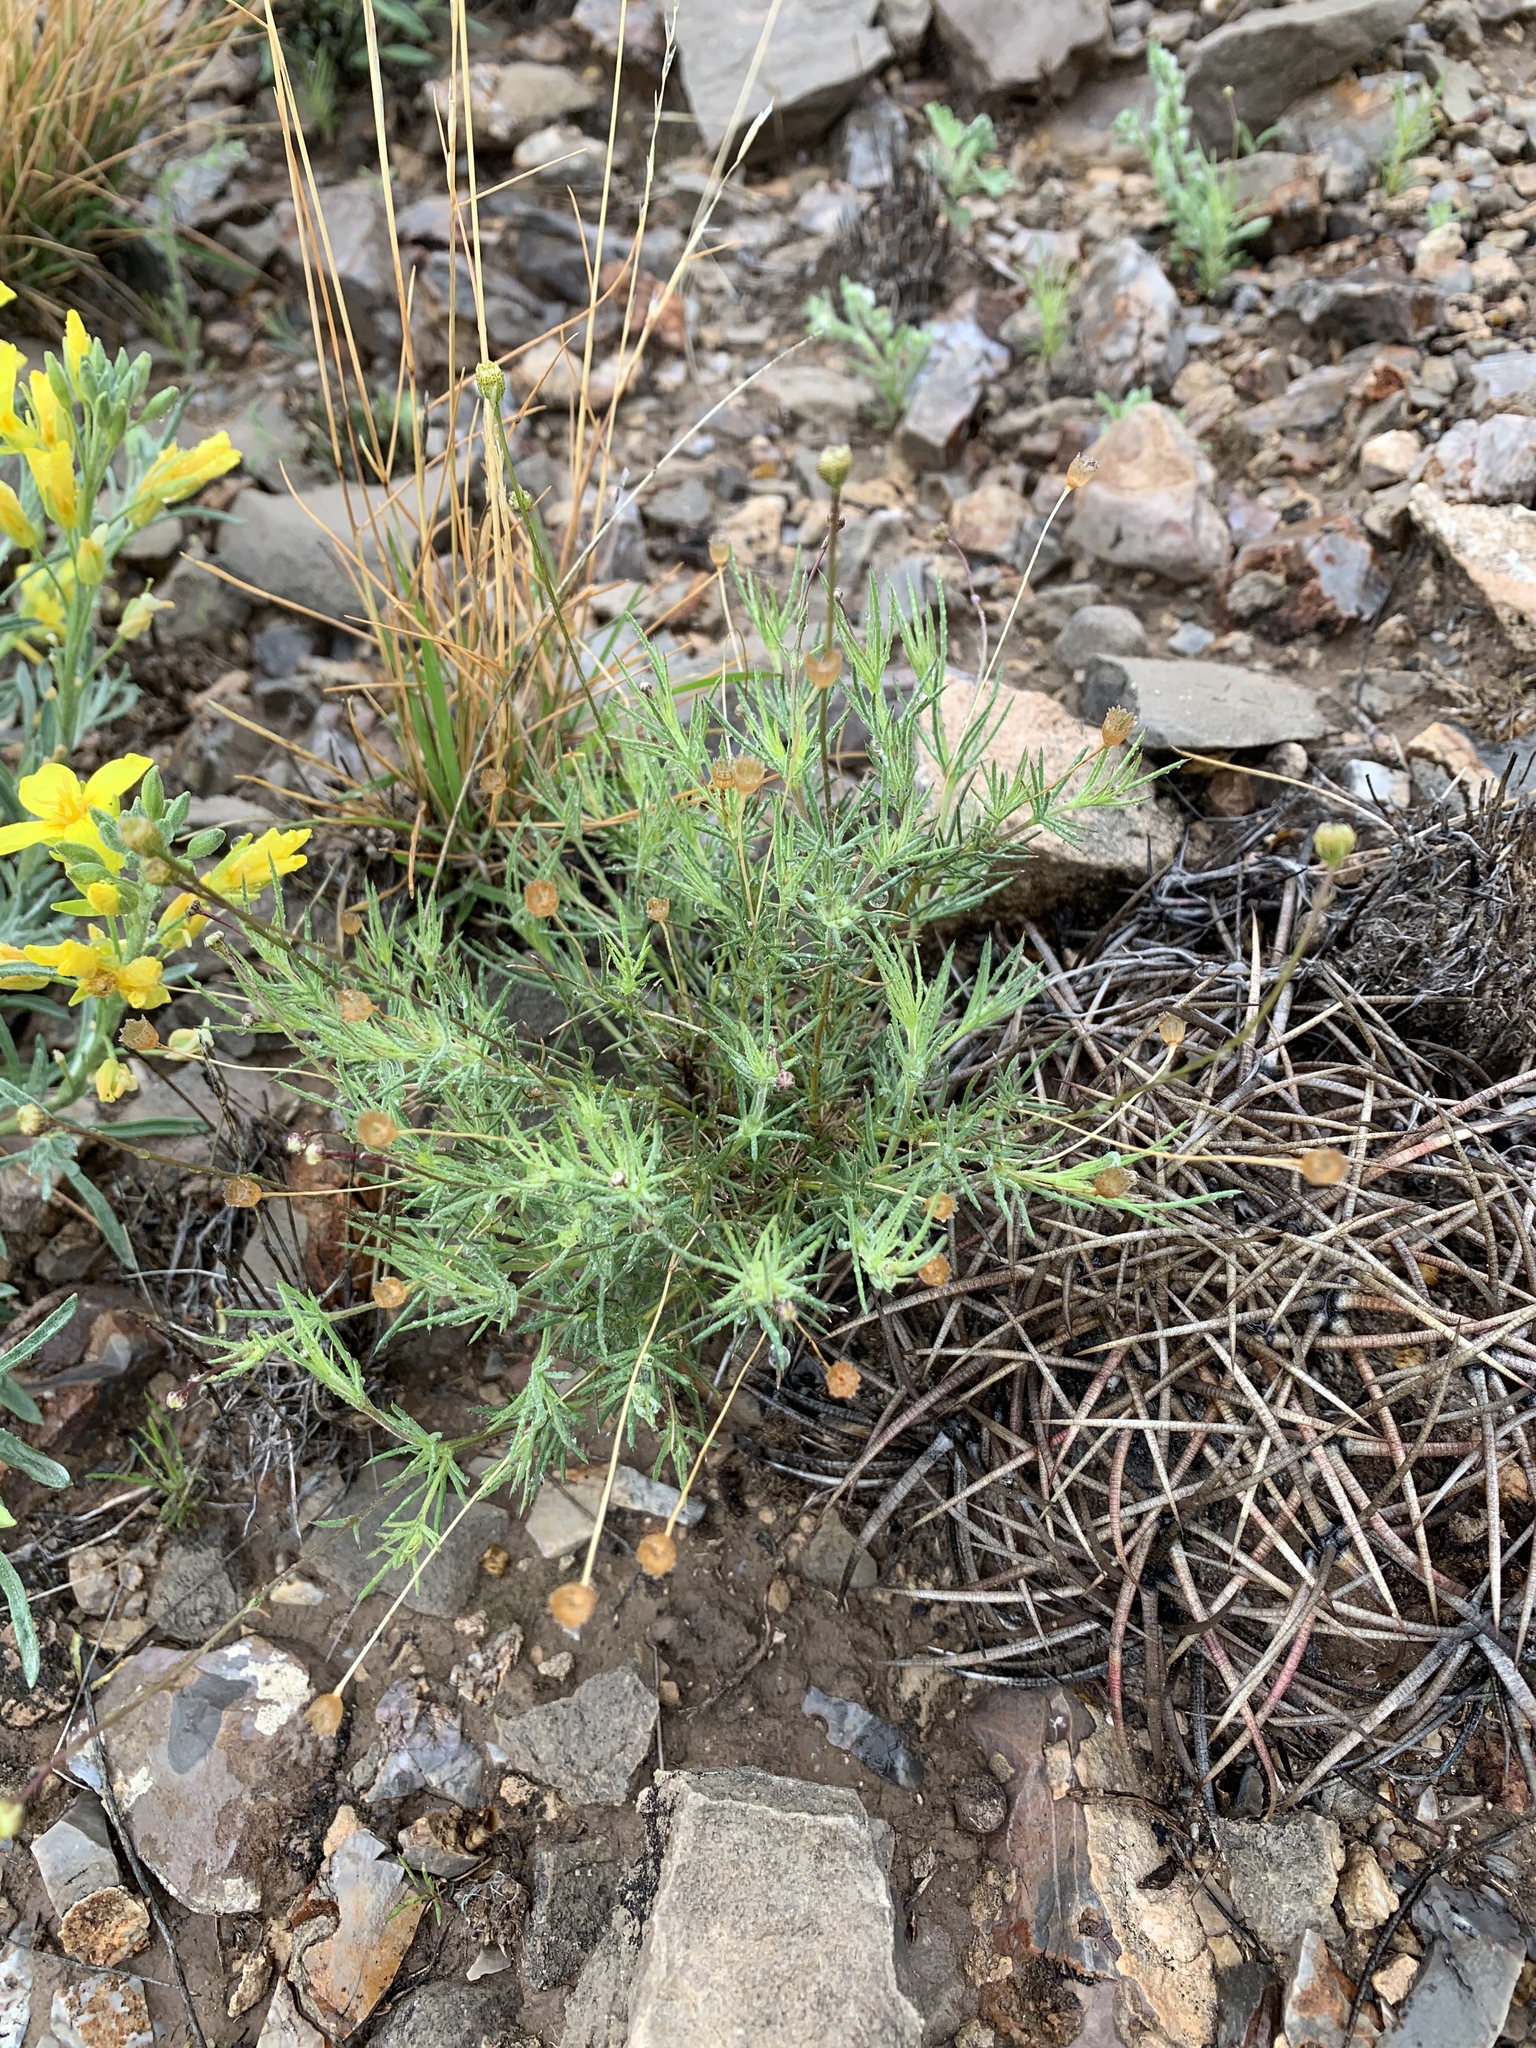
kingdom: Plantae
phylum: Tracheophyta
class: Magnoliopsida
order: Asterales
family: Asteraceae
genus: Thymophylla
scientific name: Thymophylla pentachaeta
